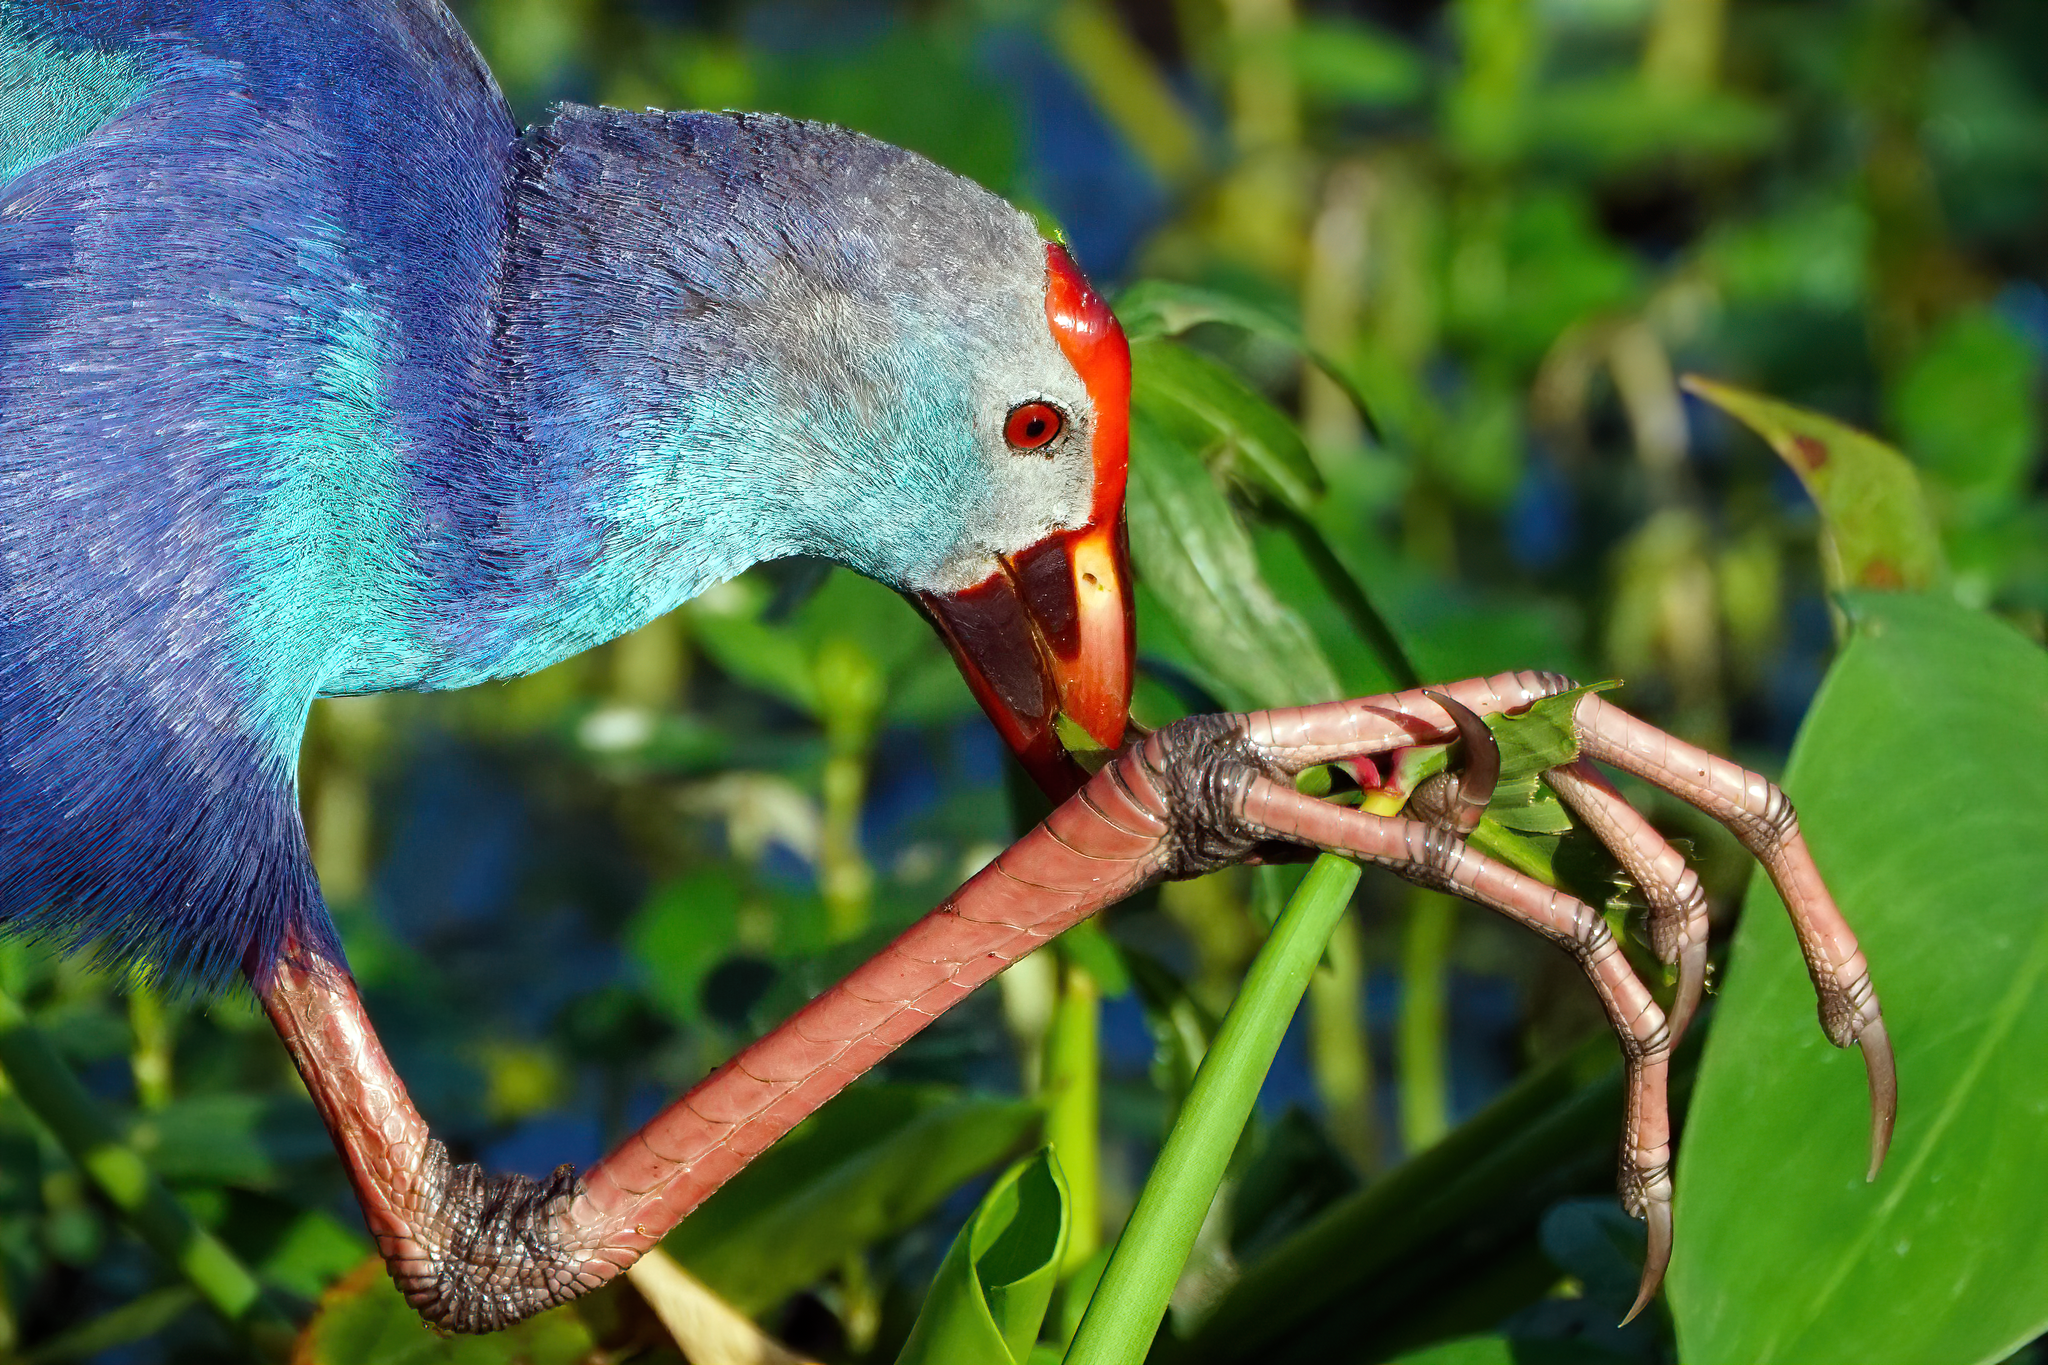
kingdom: Animalia
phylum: Chordata
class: Aves
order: Gruiformes
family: Rallidae
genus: Porphyrio
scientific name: Porphyrio porphyrio
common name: Purple swamphen
